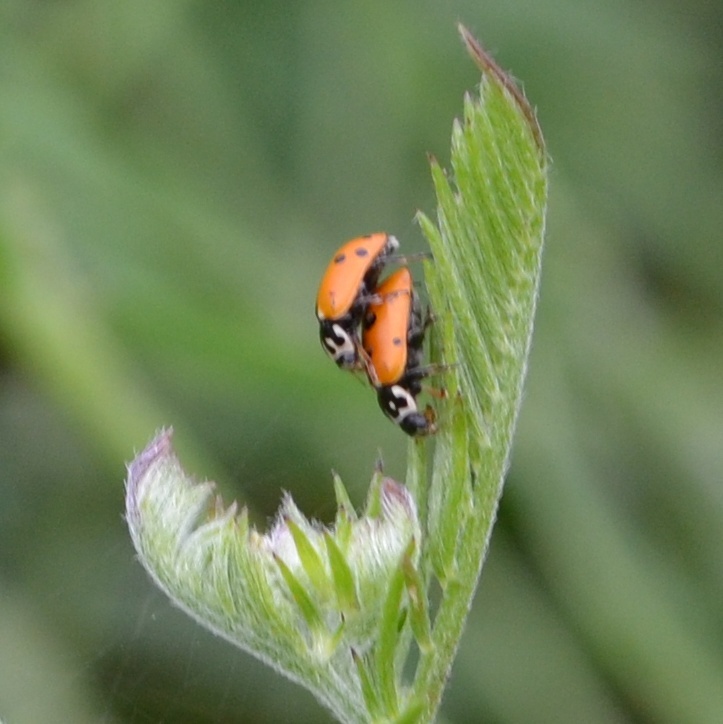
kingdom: Animalia
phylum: Arthropoda
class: Insecta
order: Coleoptera
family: Coccinellidae
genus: Hippodamia
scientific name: Hippodamia variegata
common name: Ladybird beetle
